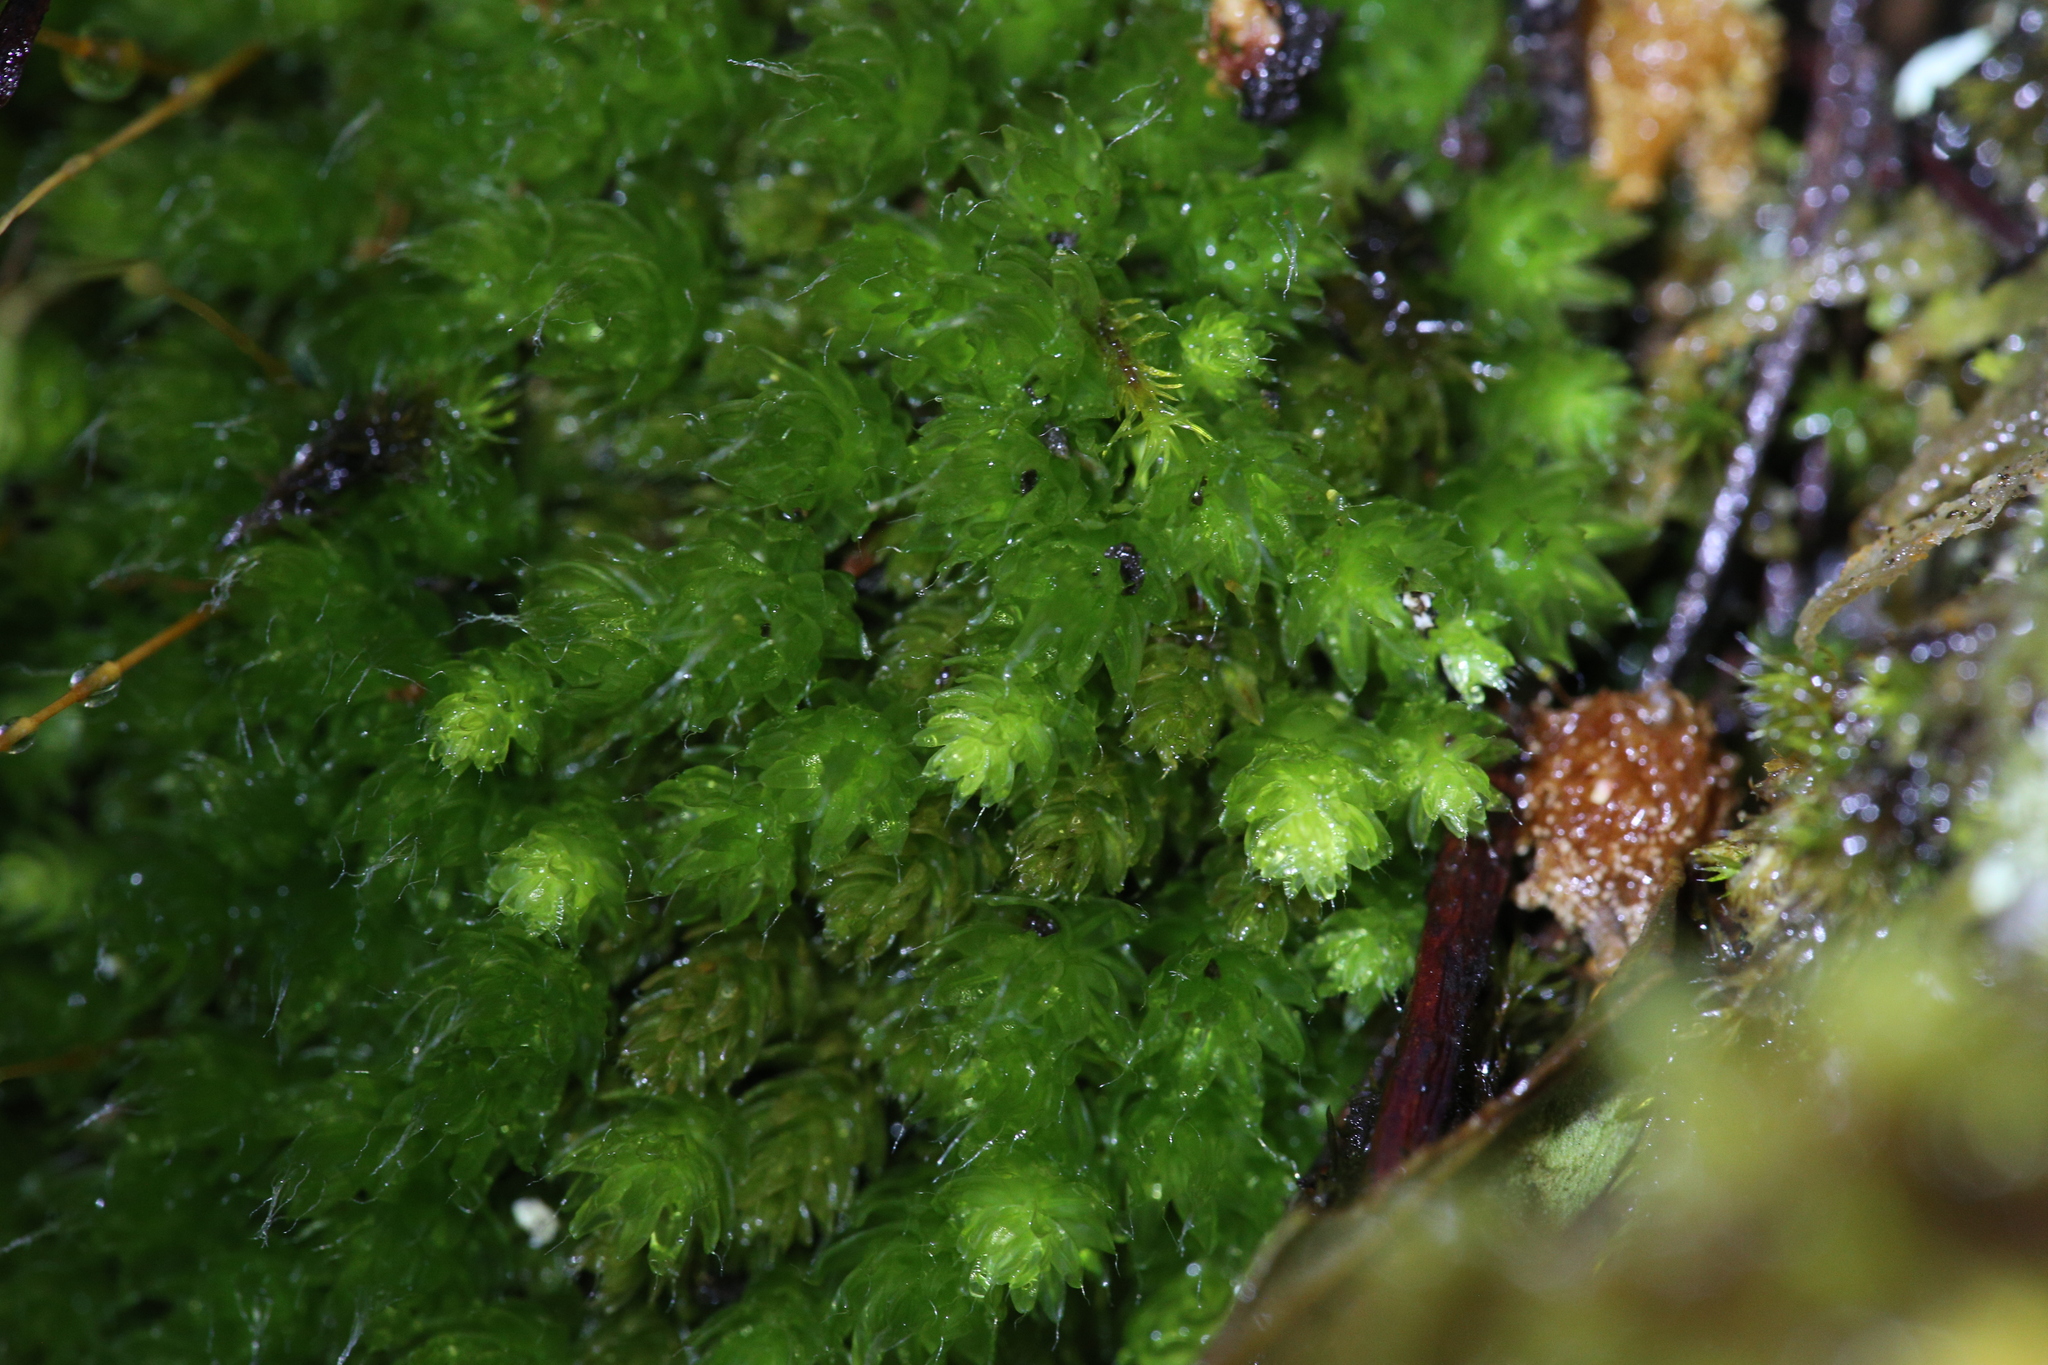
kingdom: Plantae
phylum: Bryophyta
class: Bryopsida
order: Bryales
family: Leptostomataceae
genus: Leptostomum
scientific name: Leptostomum inclinans
